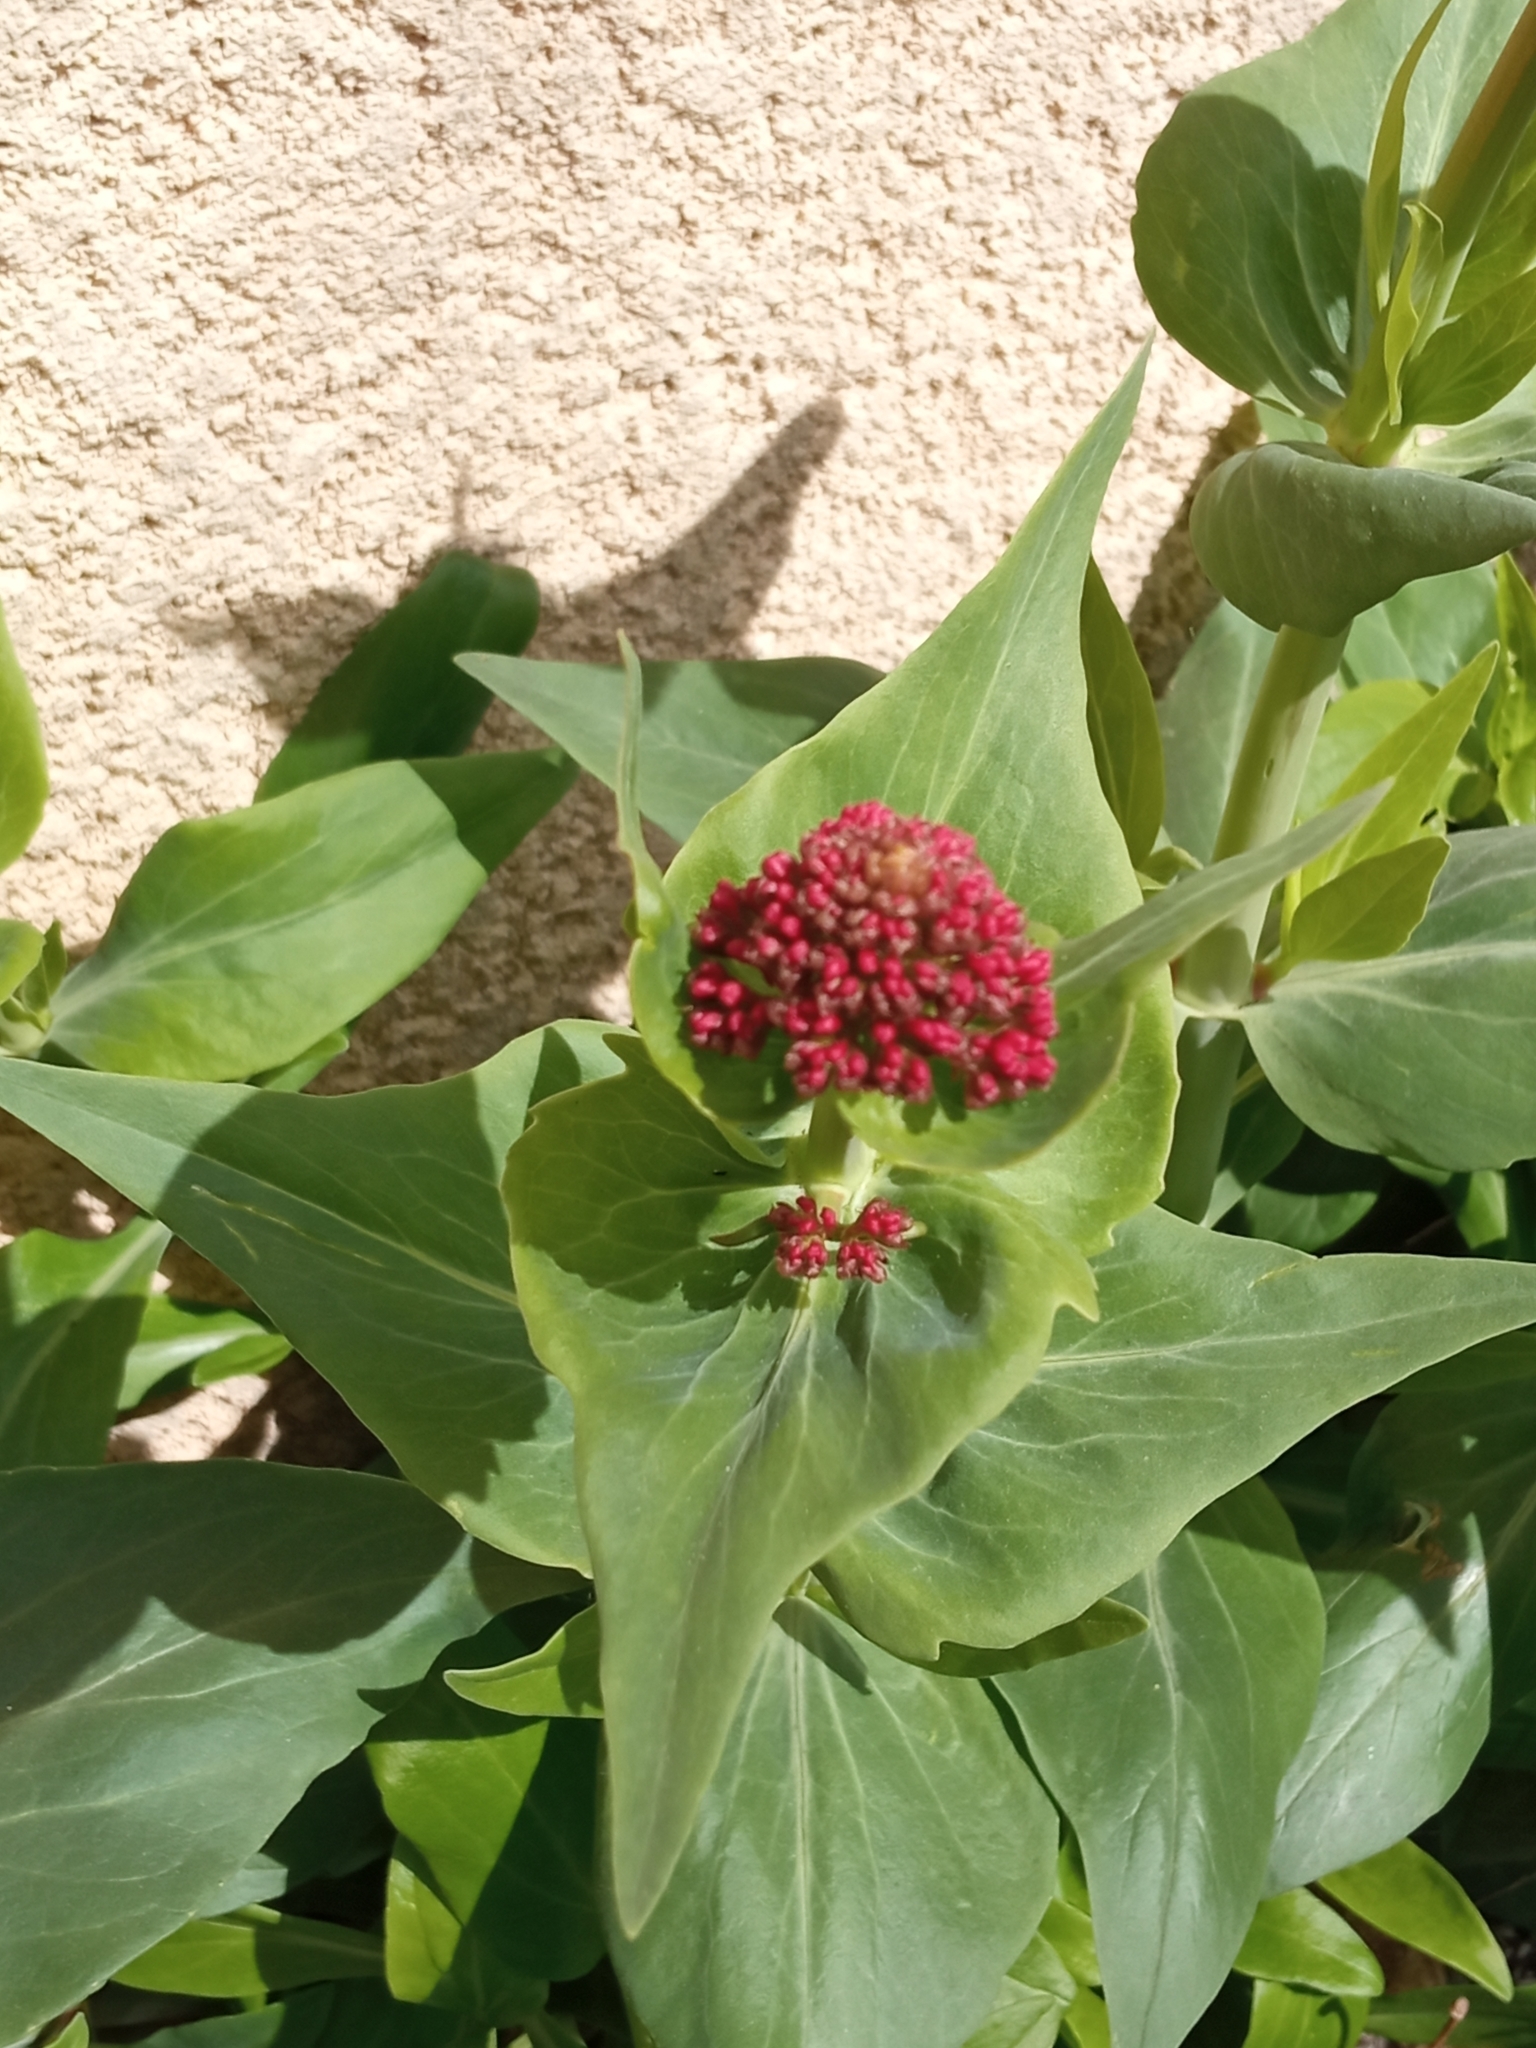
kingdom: Plantae
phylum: Tracheophyta
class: Magnoliopsida
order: Dipsacales
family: Caprifoliaceae
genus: Centranthus
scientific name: Centranthus ruber
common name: Red valerian
